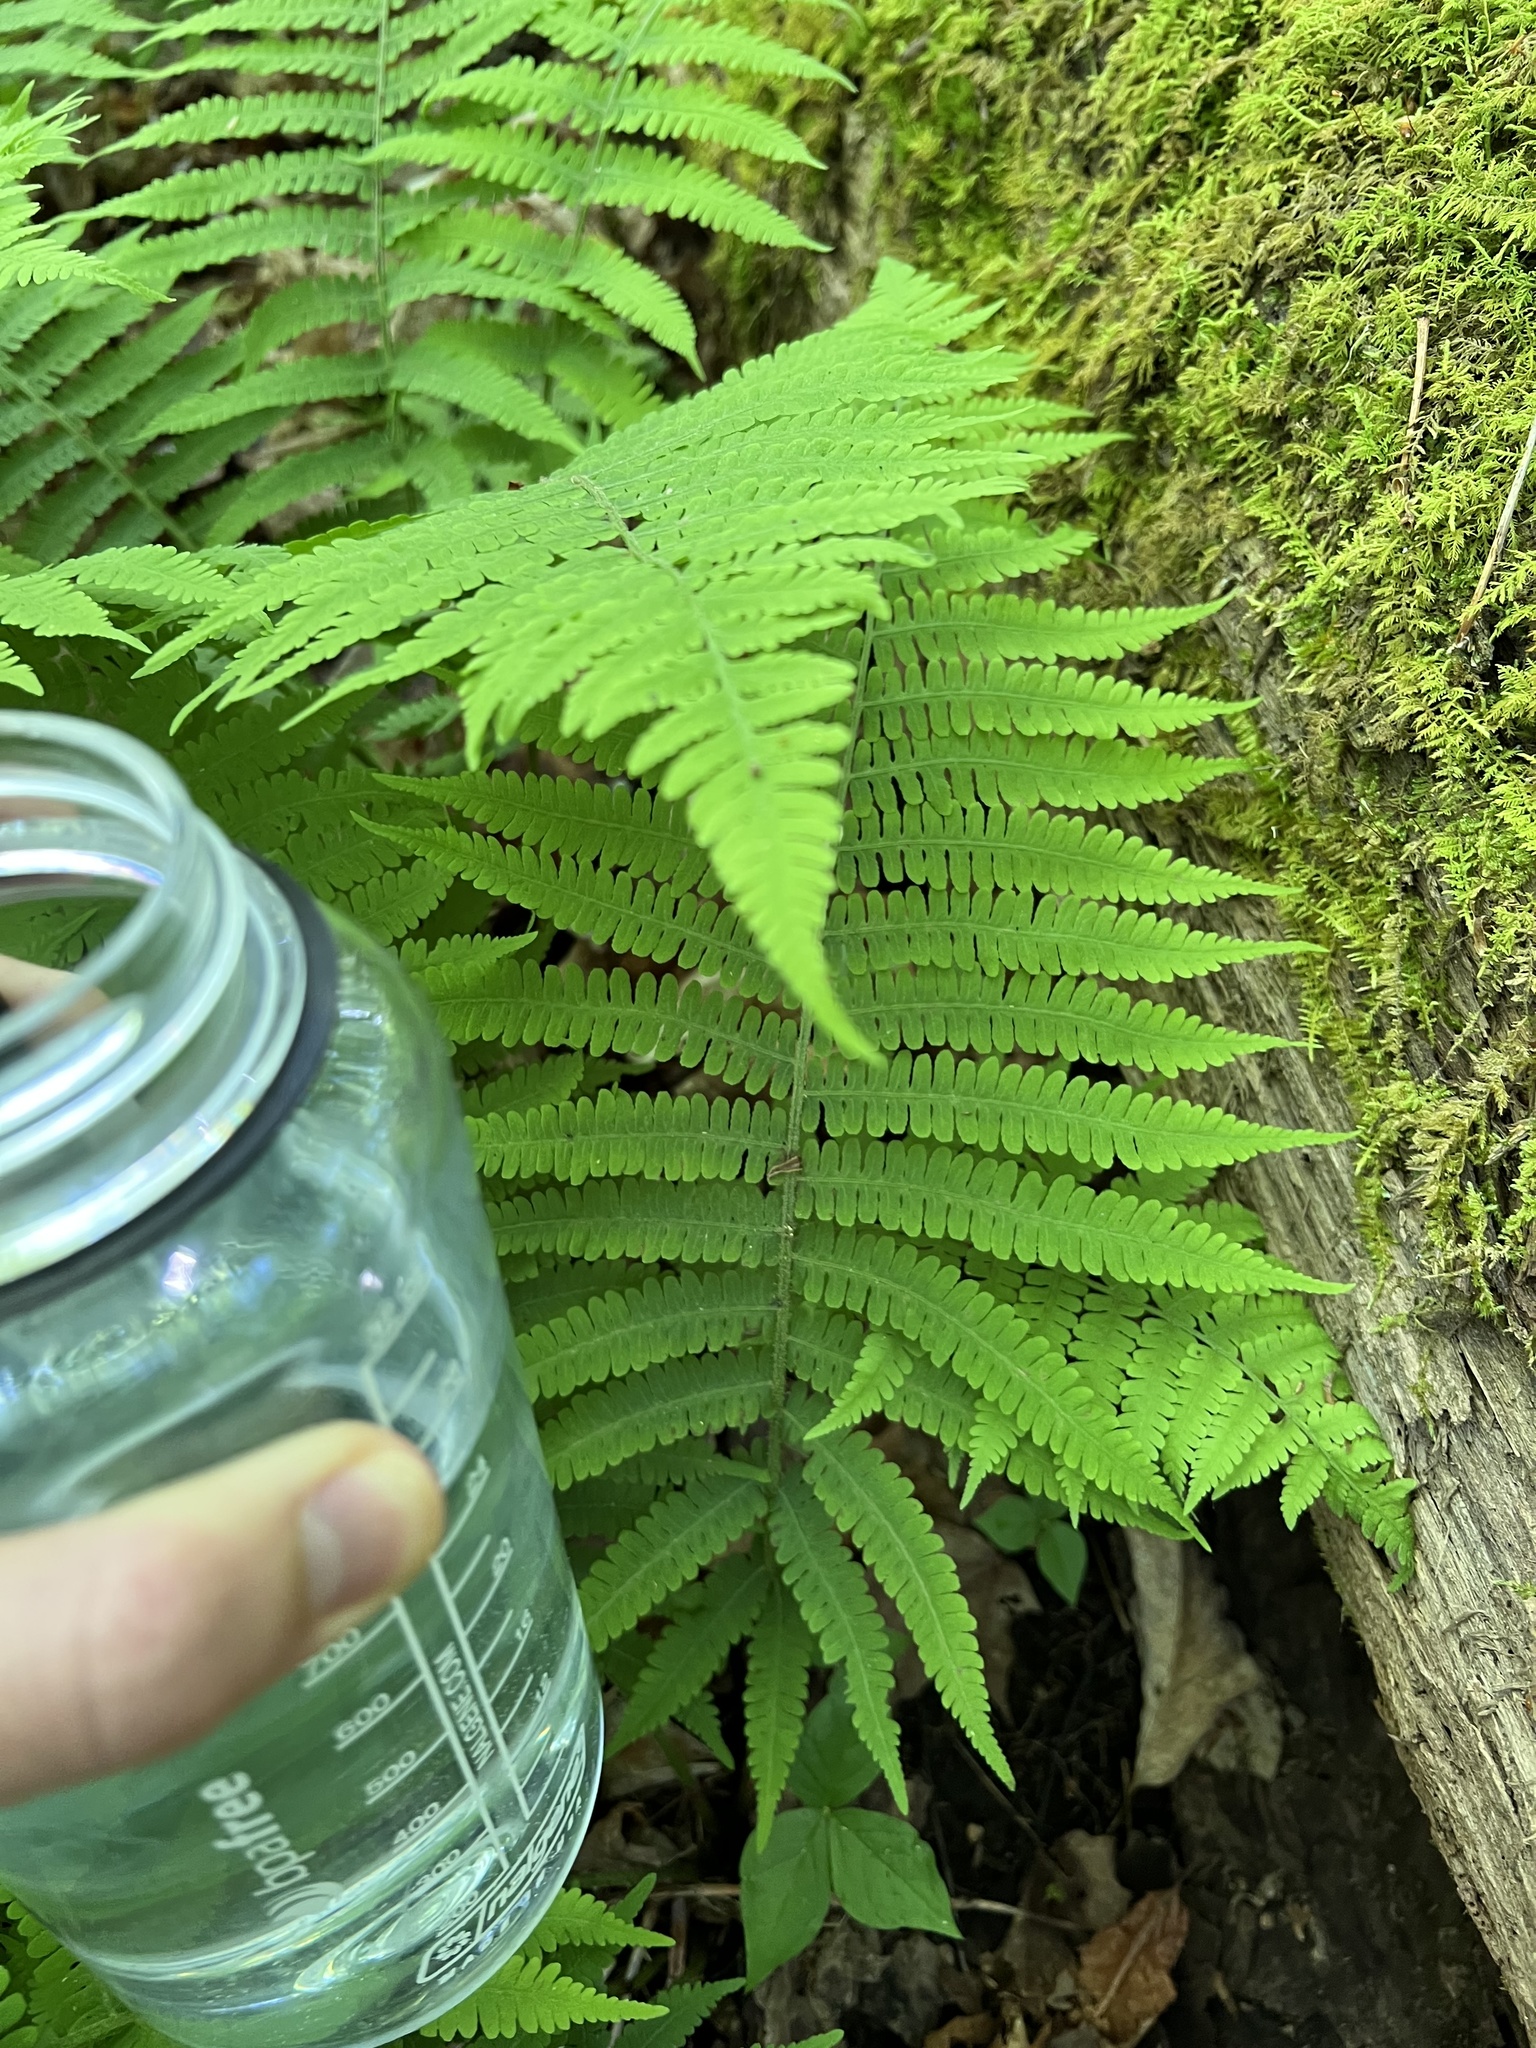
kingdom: Plantae
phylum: Tracheophyta
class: Polypodiopsida
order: Polypodiales
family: Athyriaceae
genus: Deparia
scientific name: Deparia acrostichoides
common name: Silver false spleenwort
